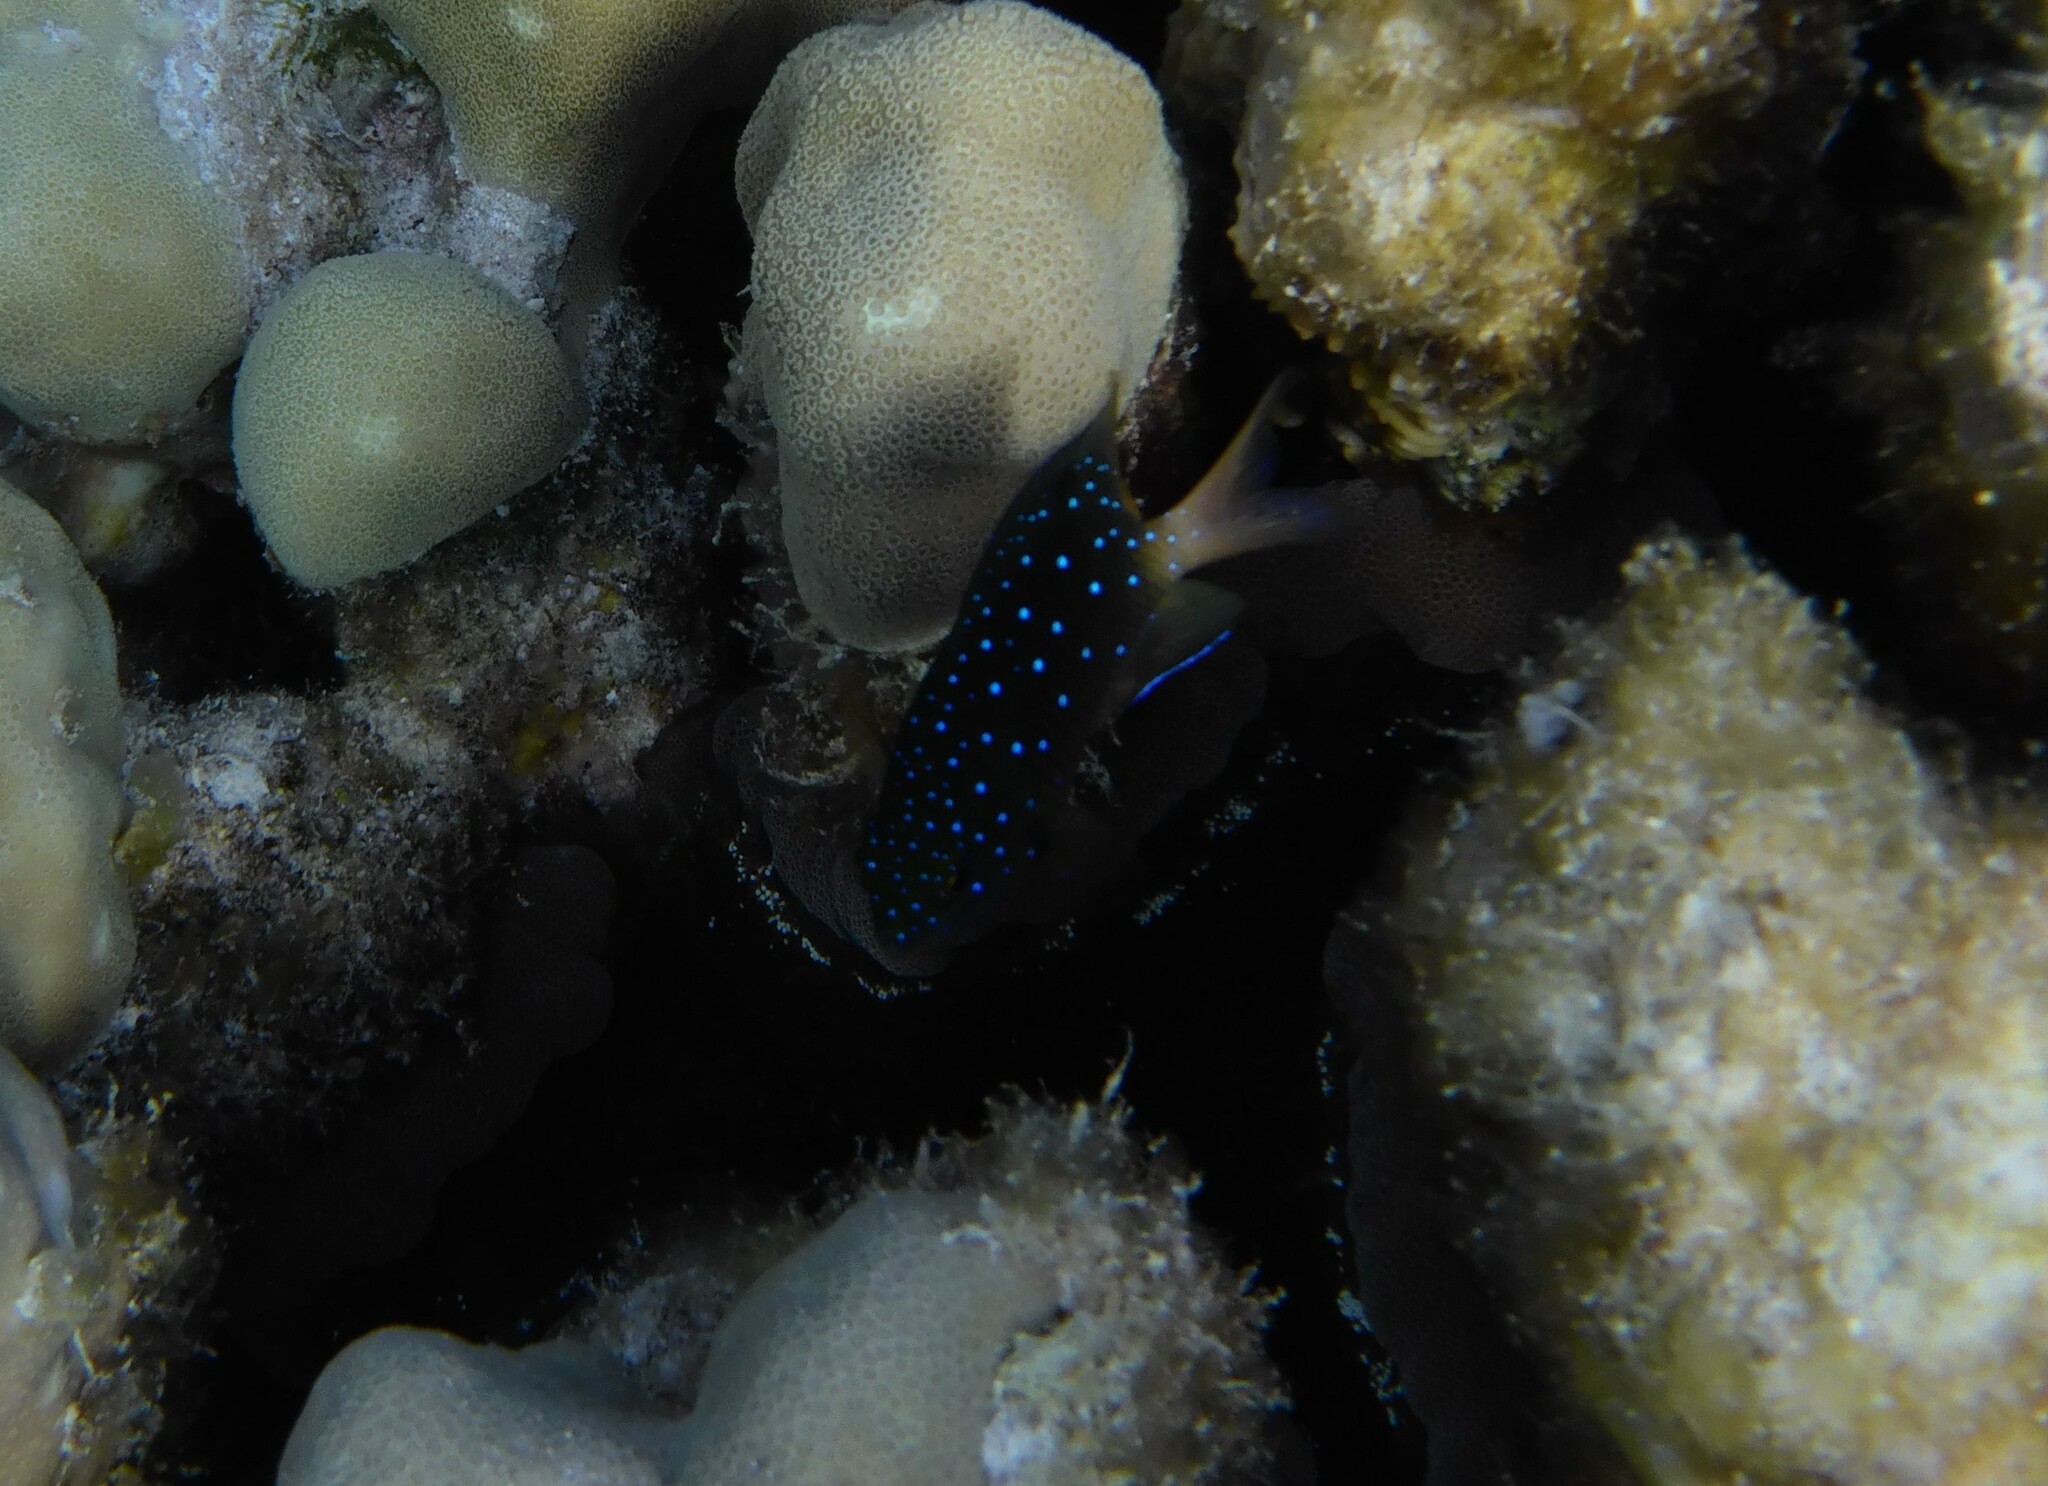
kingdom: Animalia
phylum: Chordata
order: Perciformes
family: Pomacentridae
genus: Plectroglyphidodon
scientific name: Plectroglyphidodon lacrymatus
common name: Jewel damsel
